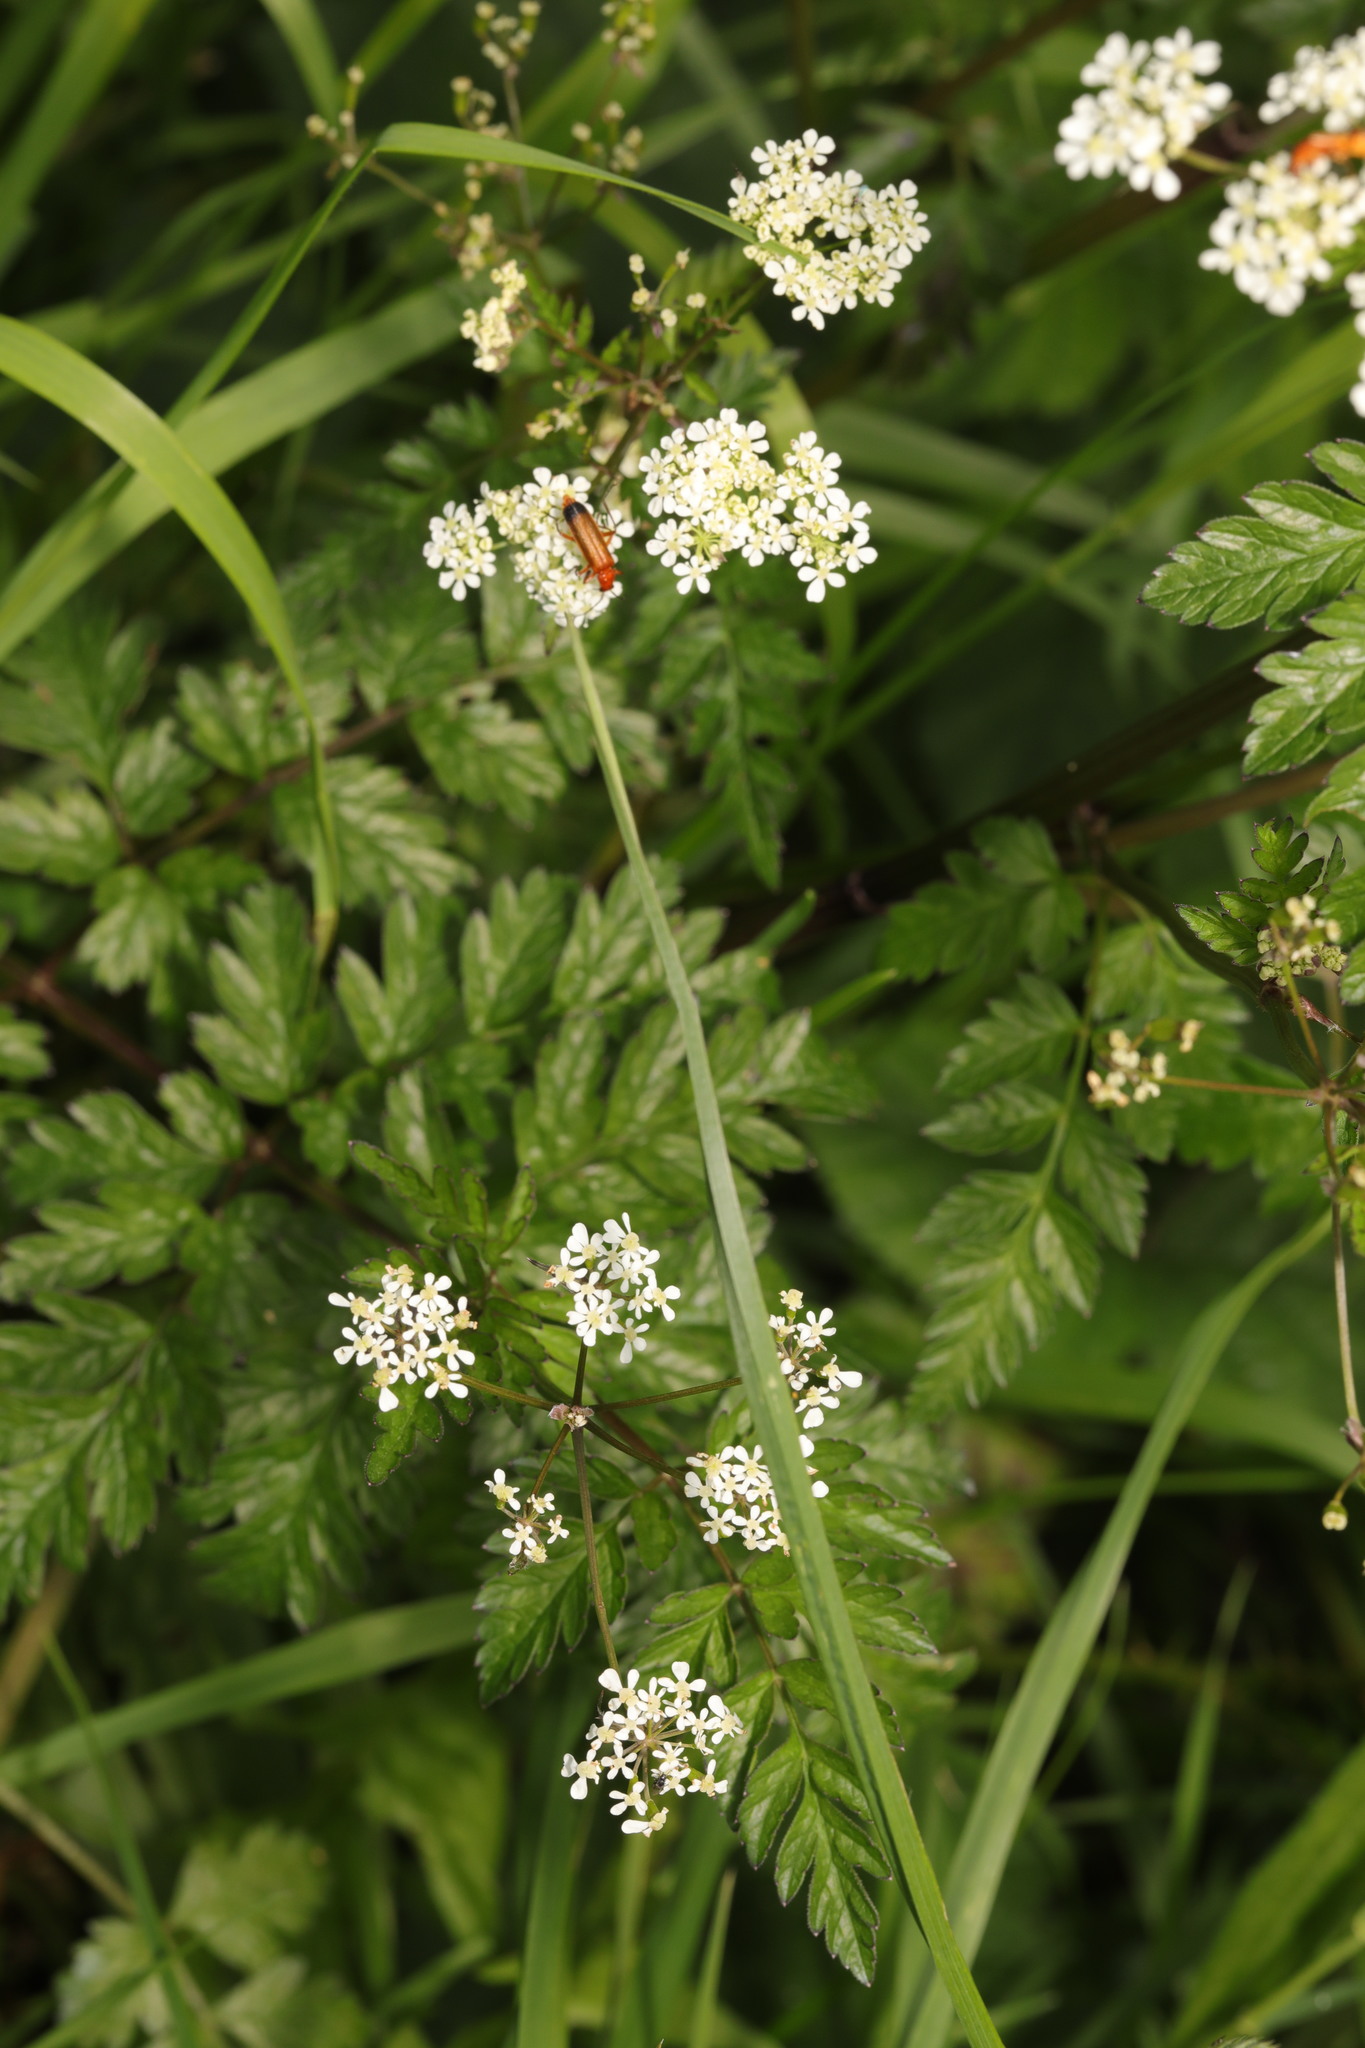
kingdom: Plantae
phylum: Tracheophyta
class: Magnoliopsida
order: Apiales
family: Apiaceae
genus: Anthriscus
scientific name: Anthriscus sylvestris
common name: Cow parsley
